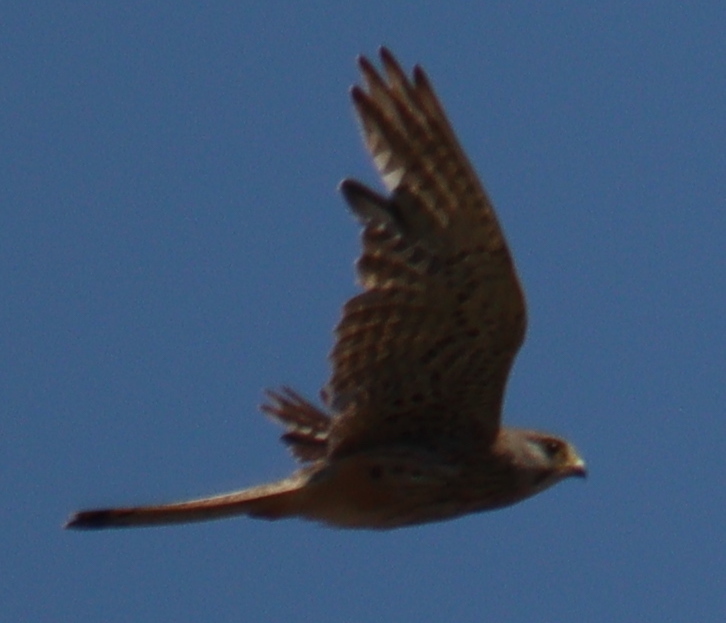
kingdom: Animalia
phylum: Chordata
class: Aves
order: Falconiformes
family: Falconidae
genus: Falco
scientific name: Falco tinnunculus
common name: Common kestrel
